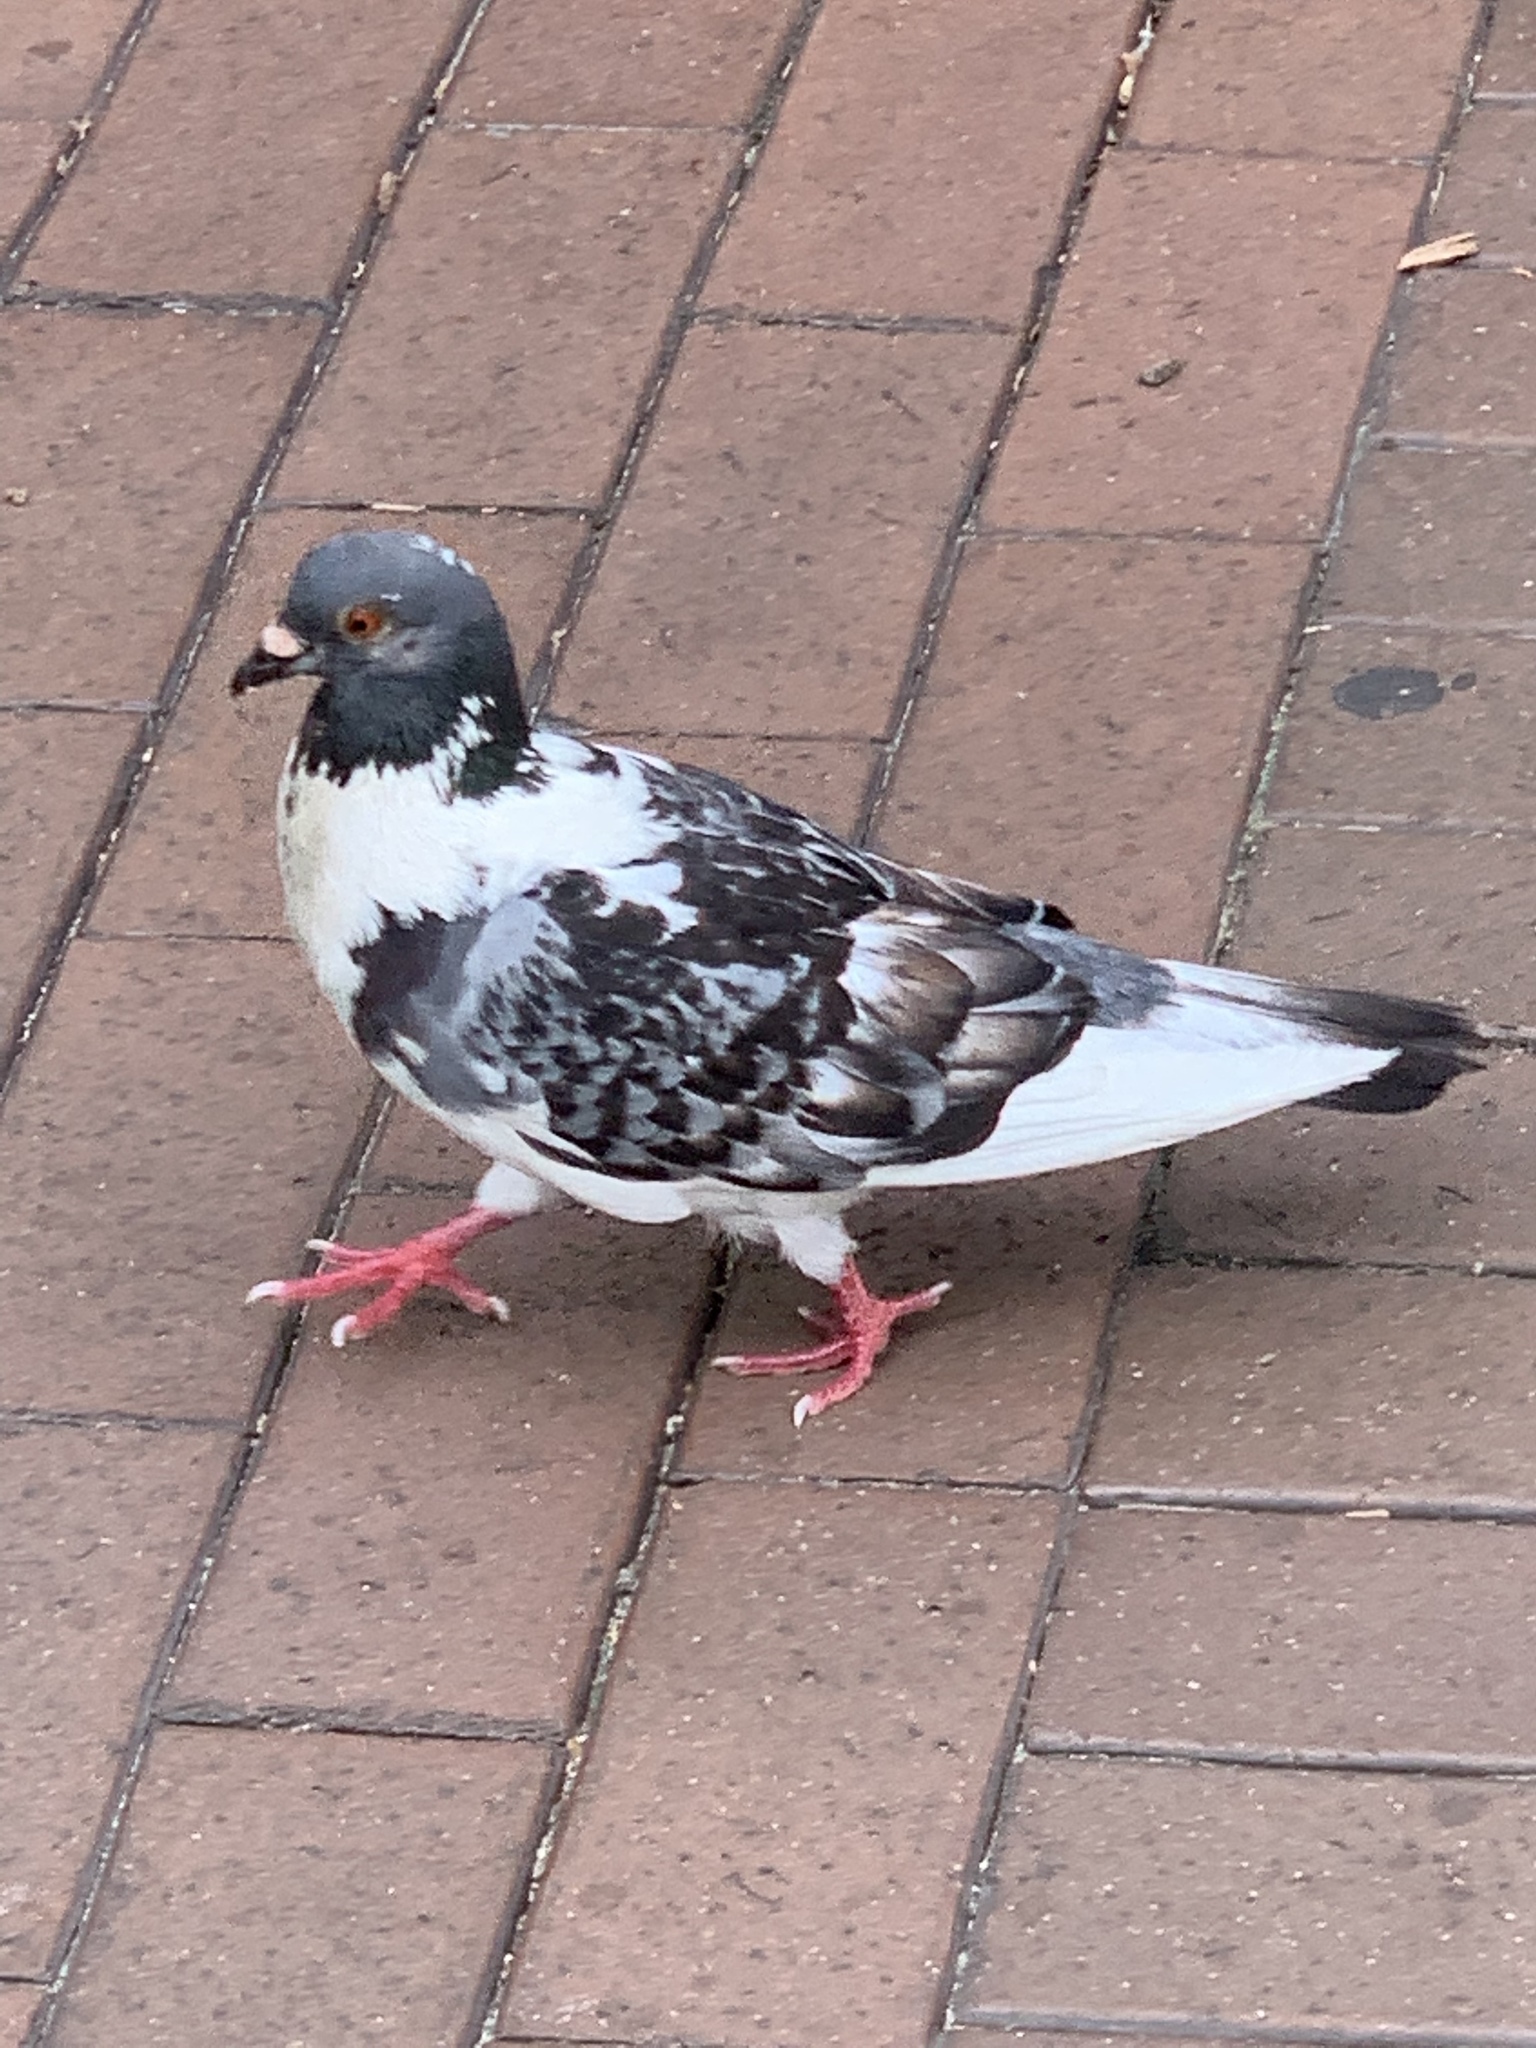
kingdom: Animalia
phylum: Chordata
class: Aves
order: Columbiformes
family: Columbidae
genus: Columba
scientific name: Columba livia
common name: Rock pigeon
